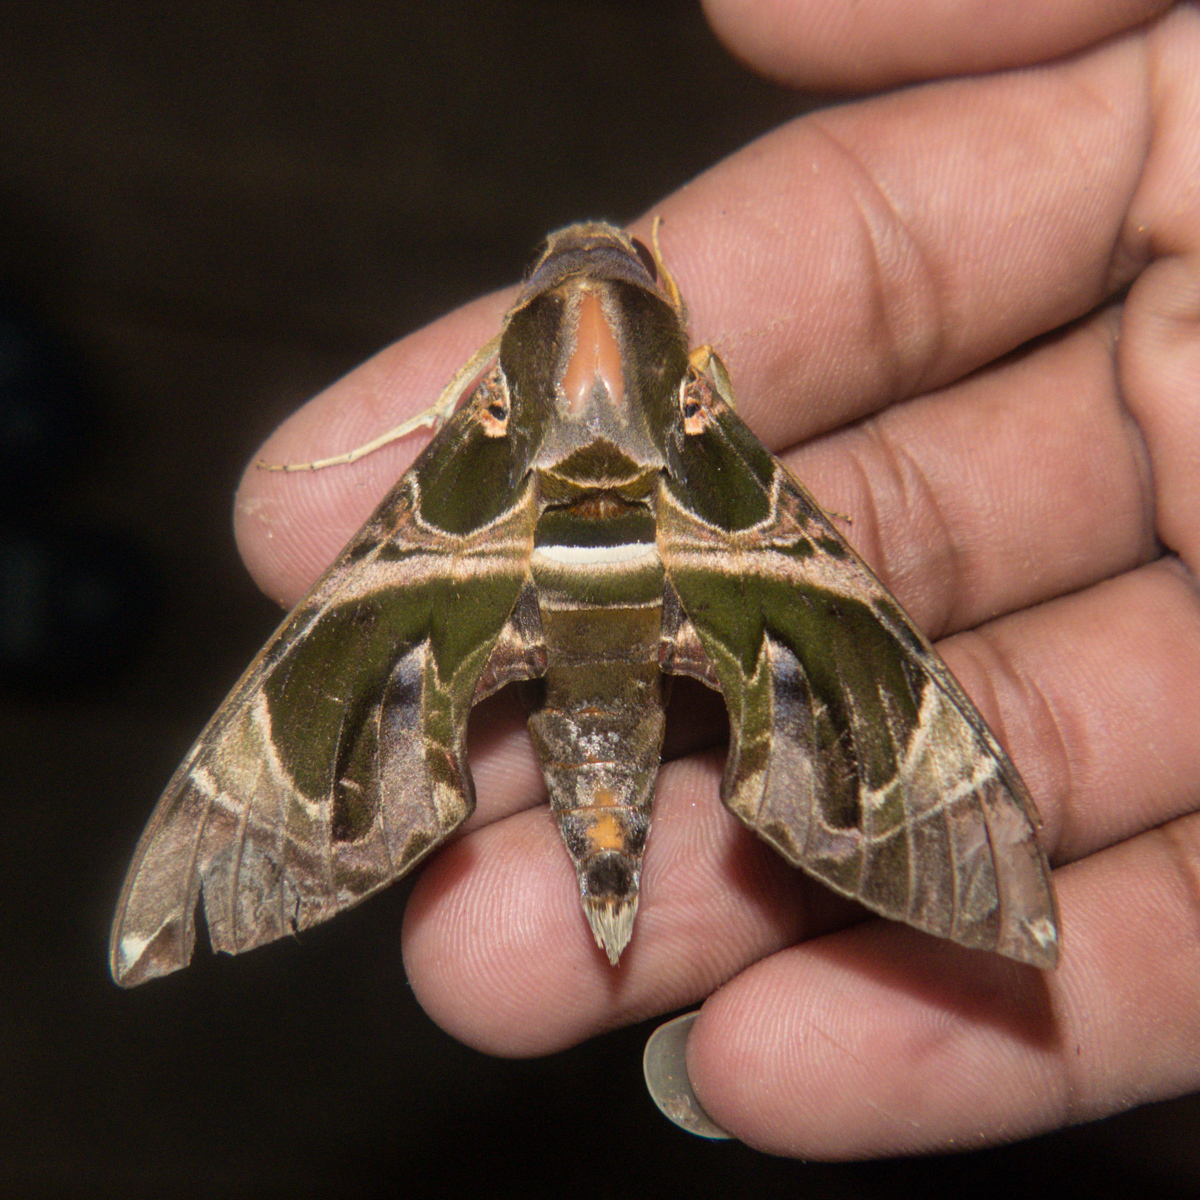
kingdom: Animalia
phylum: Arthropoda
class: Insecta
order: Lepidoptera
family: Sphingidae
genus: Daphnis
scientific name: Daphnis hypothous
